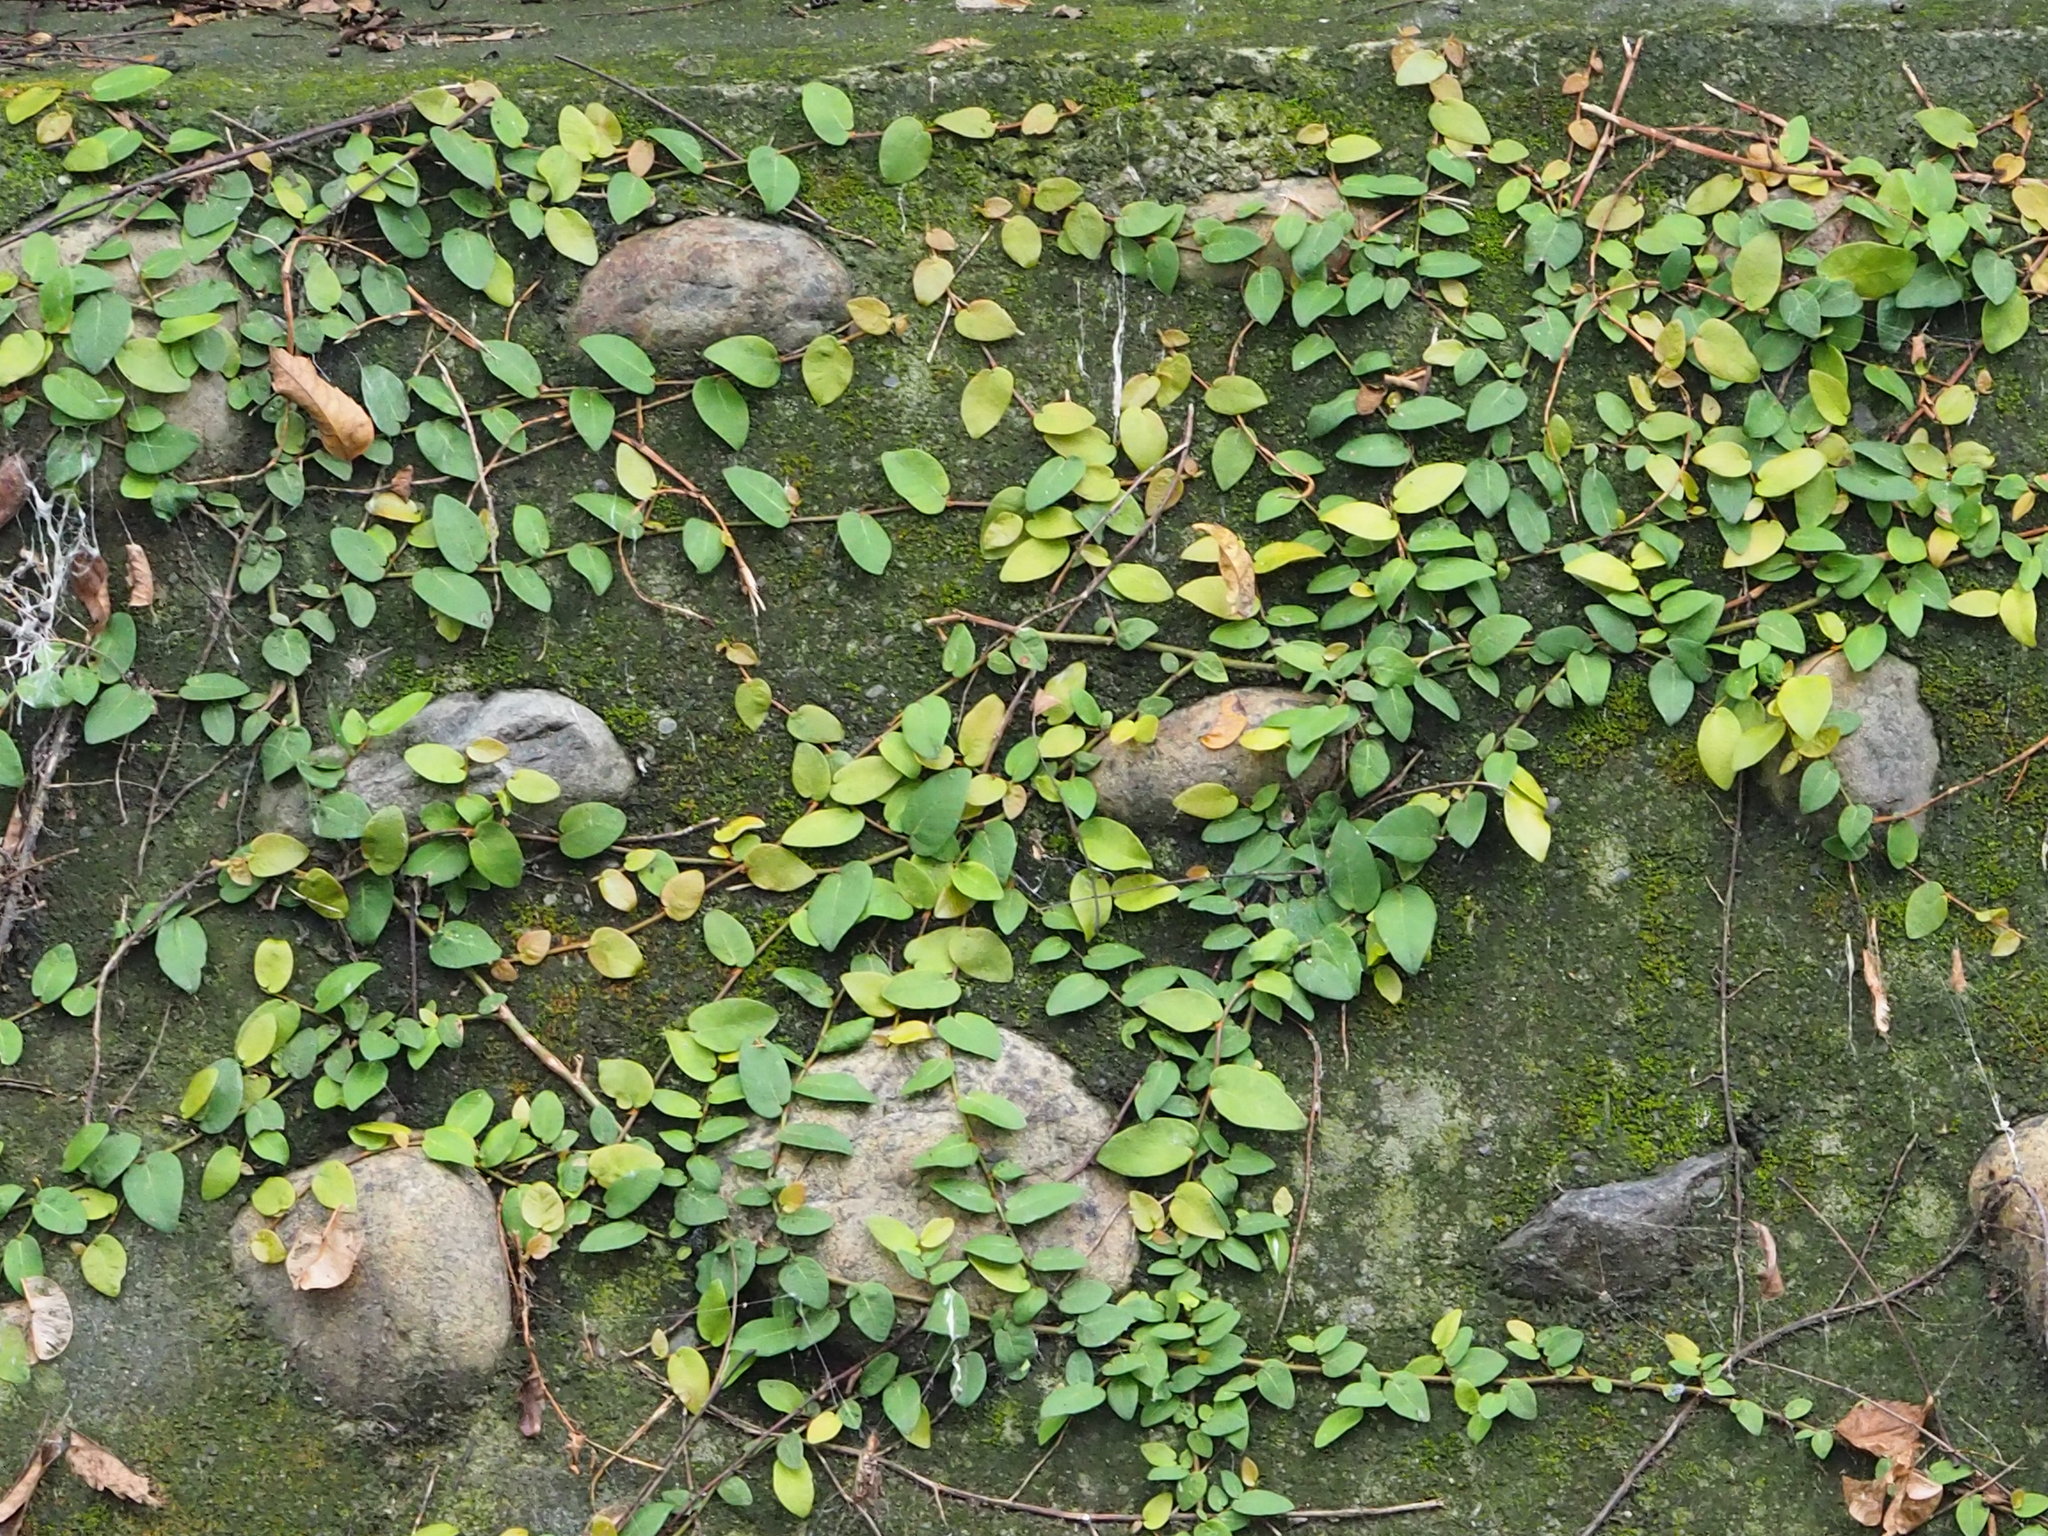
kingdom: Plantae
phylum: Tracheophyta
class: Magnoliopsida
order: Rosales
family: Moraceae
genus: Ficus
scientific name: Ficus pumila
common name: Climbingfig
